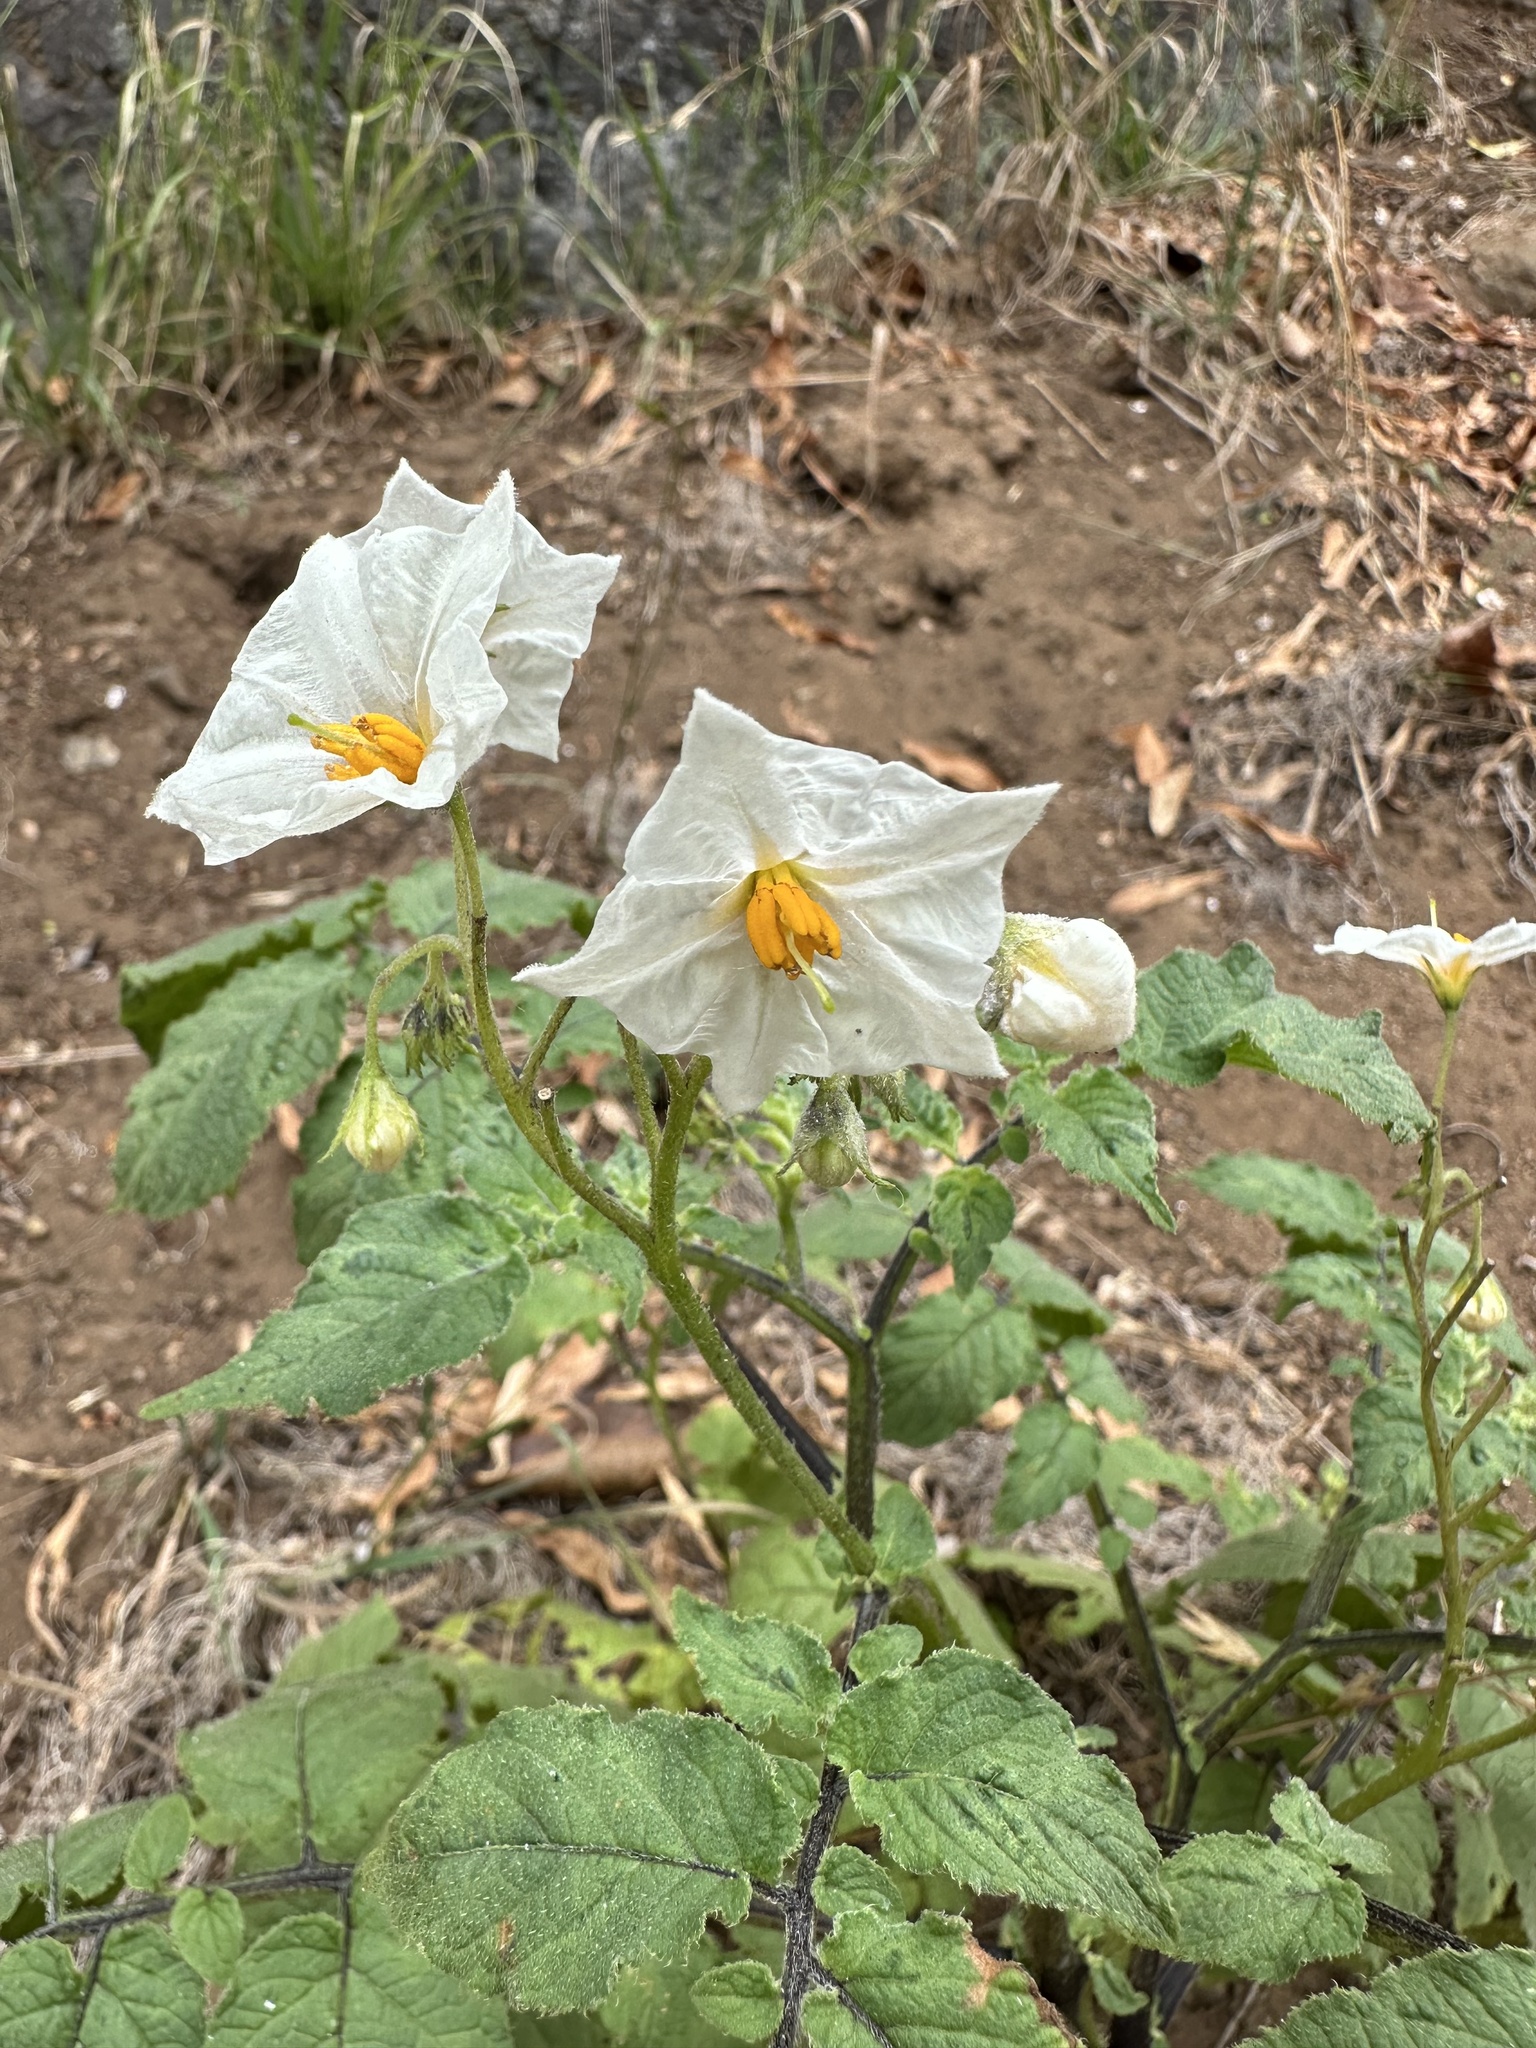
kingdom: Plantae
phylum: Tracheophyta
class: Magnoliopsida
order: Solanales
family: Solanaceae
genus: Solanum
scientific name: Solanum maglia
